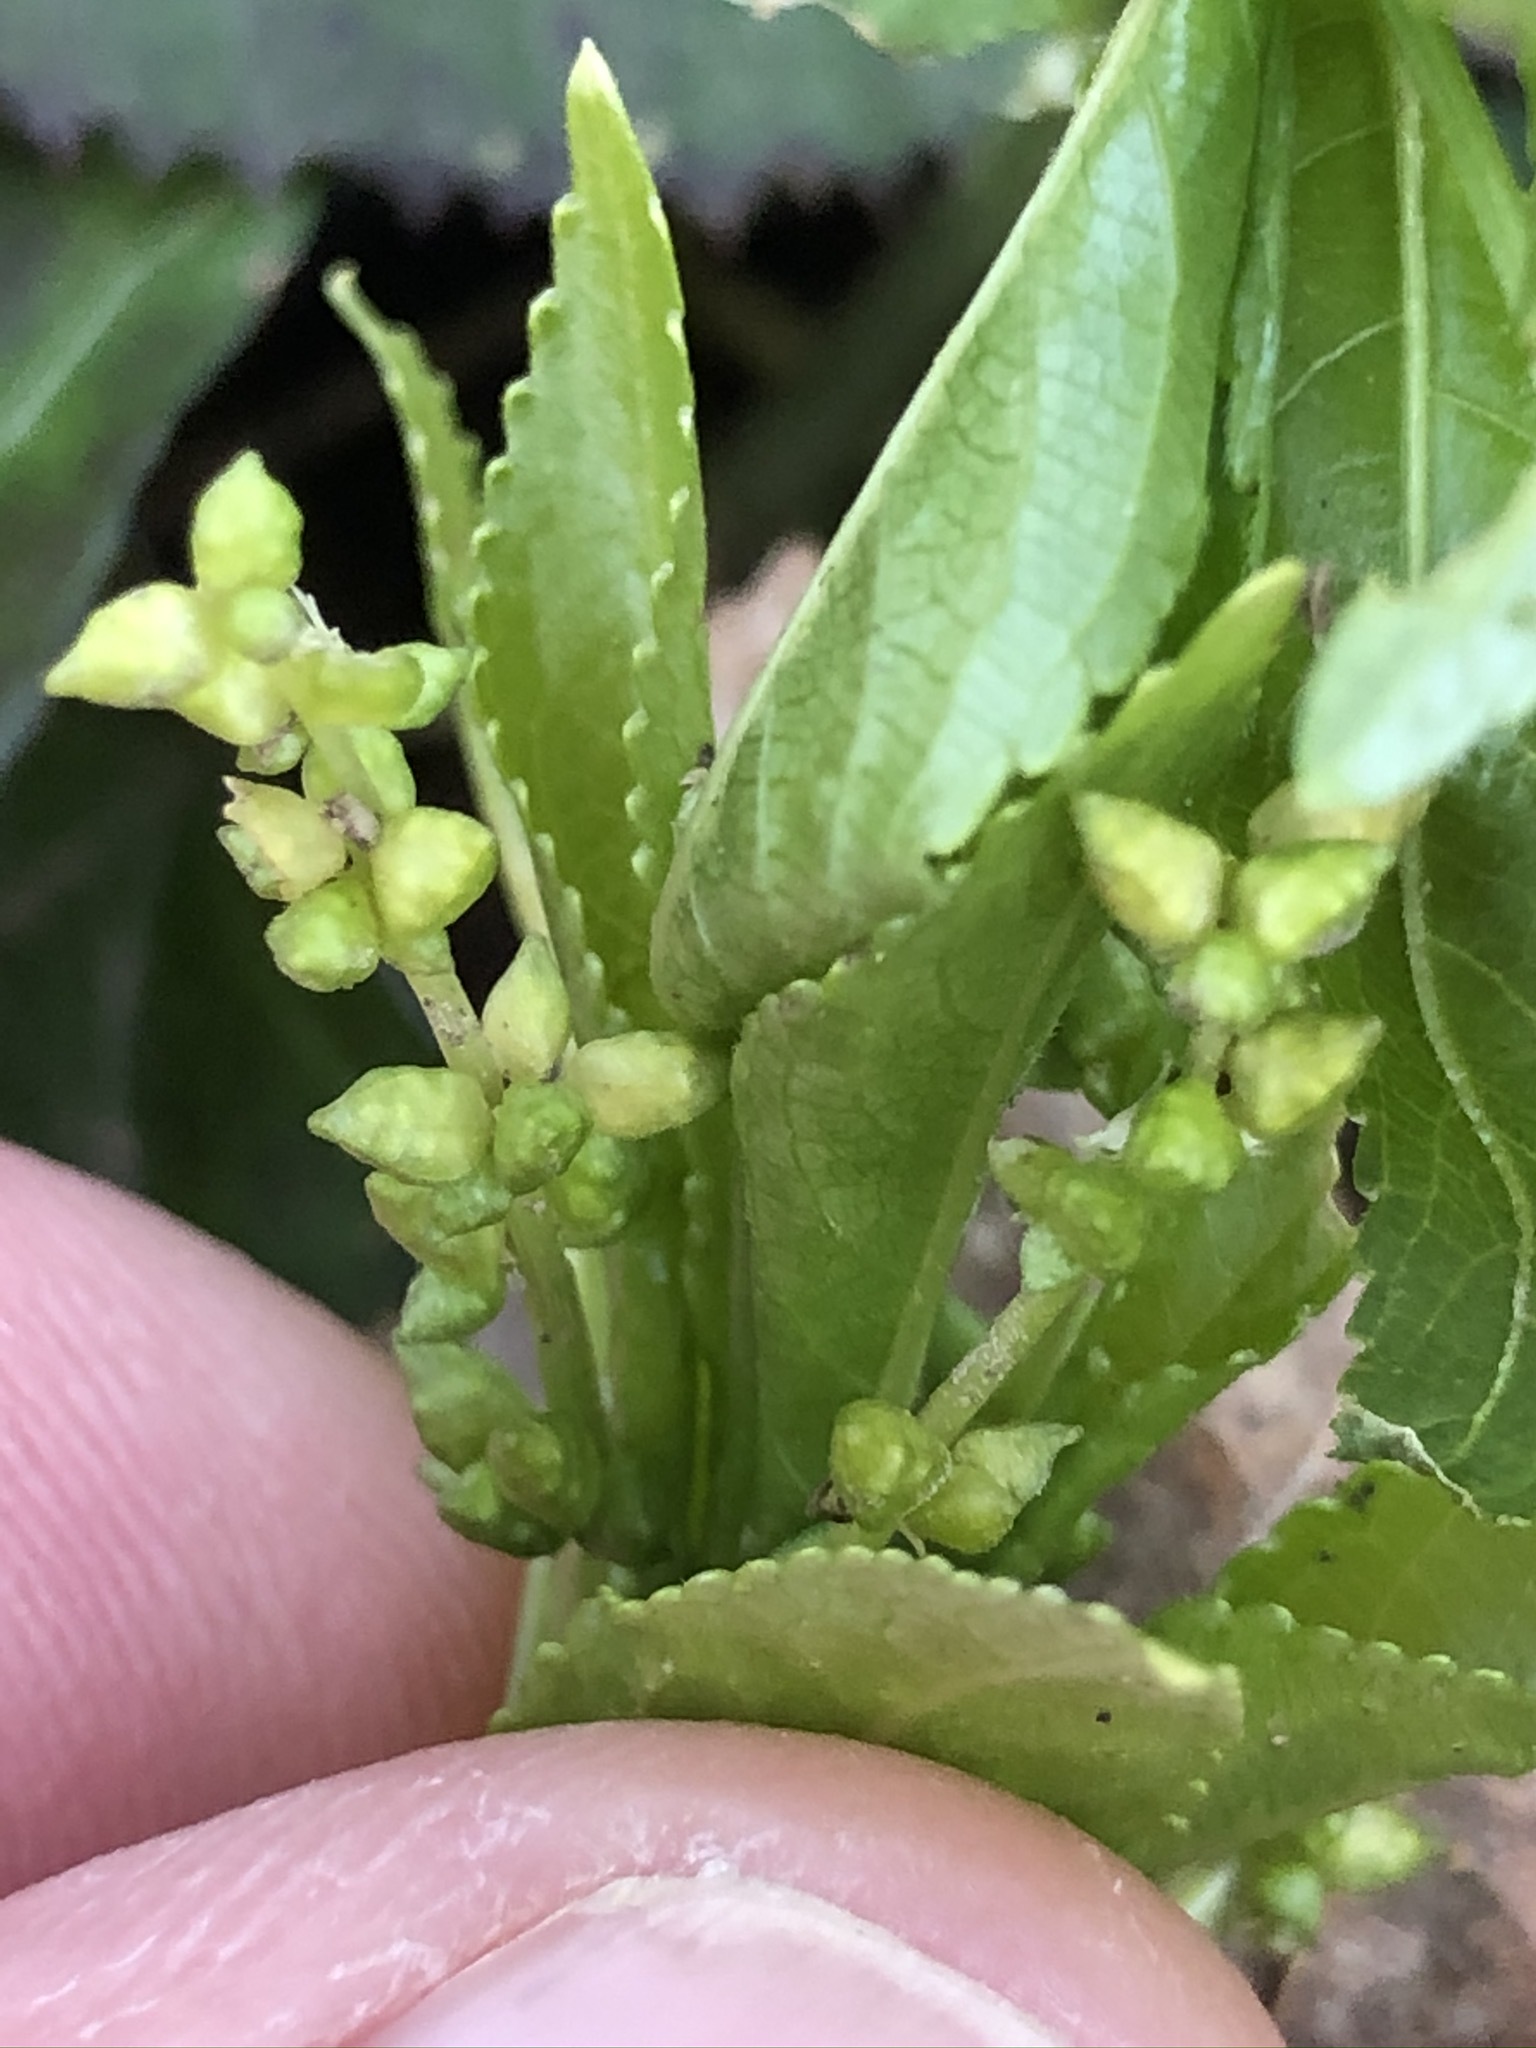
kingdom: Plantae
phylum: Tracheophyta
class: Magnoliopsida
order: Malpighiales
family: Euphorbiaceae
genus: Mercurialis
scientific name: Mercurialis perennis
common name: Dog mercury
